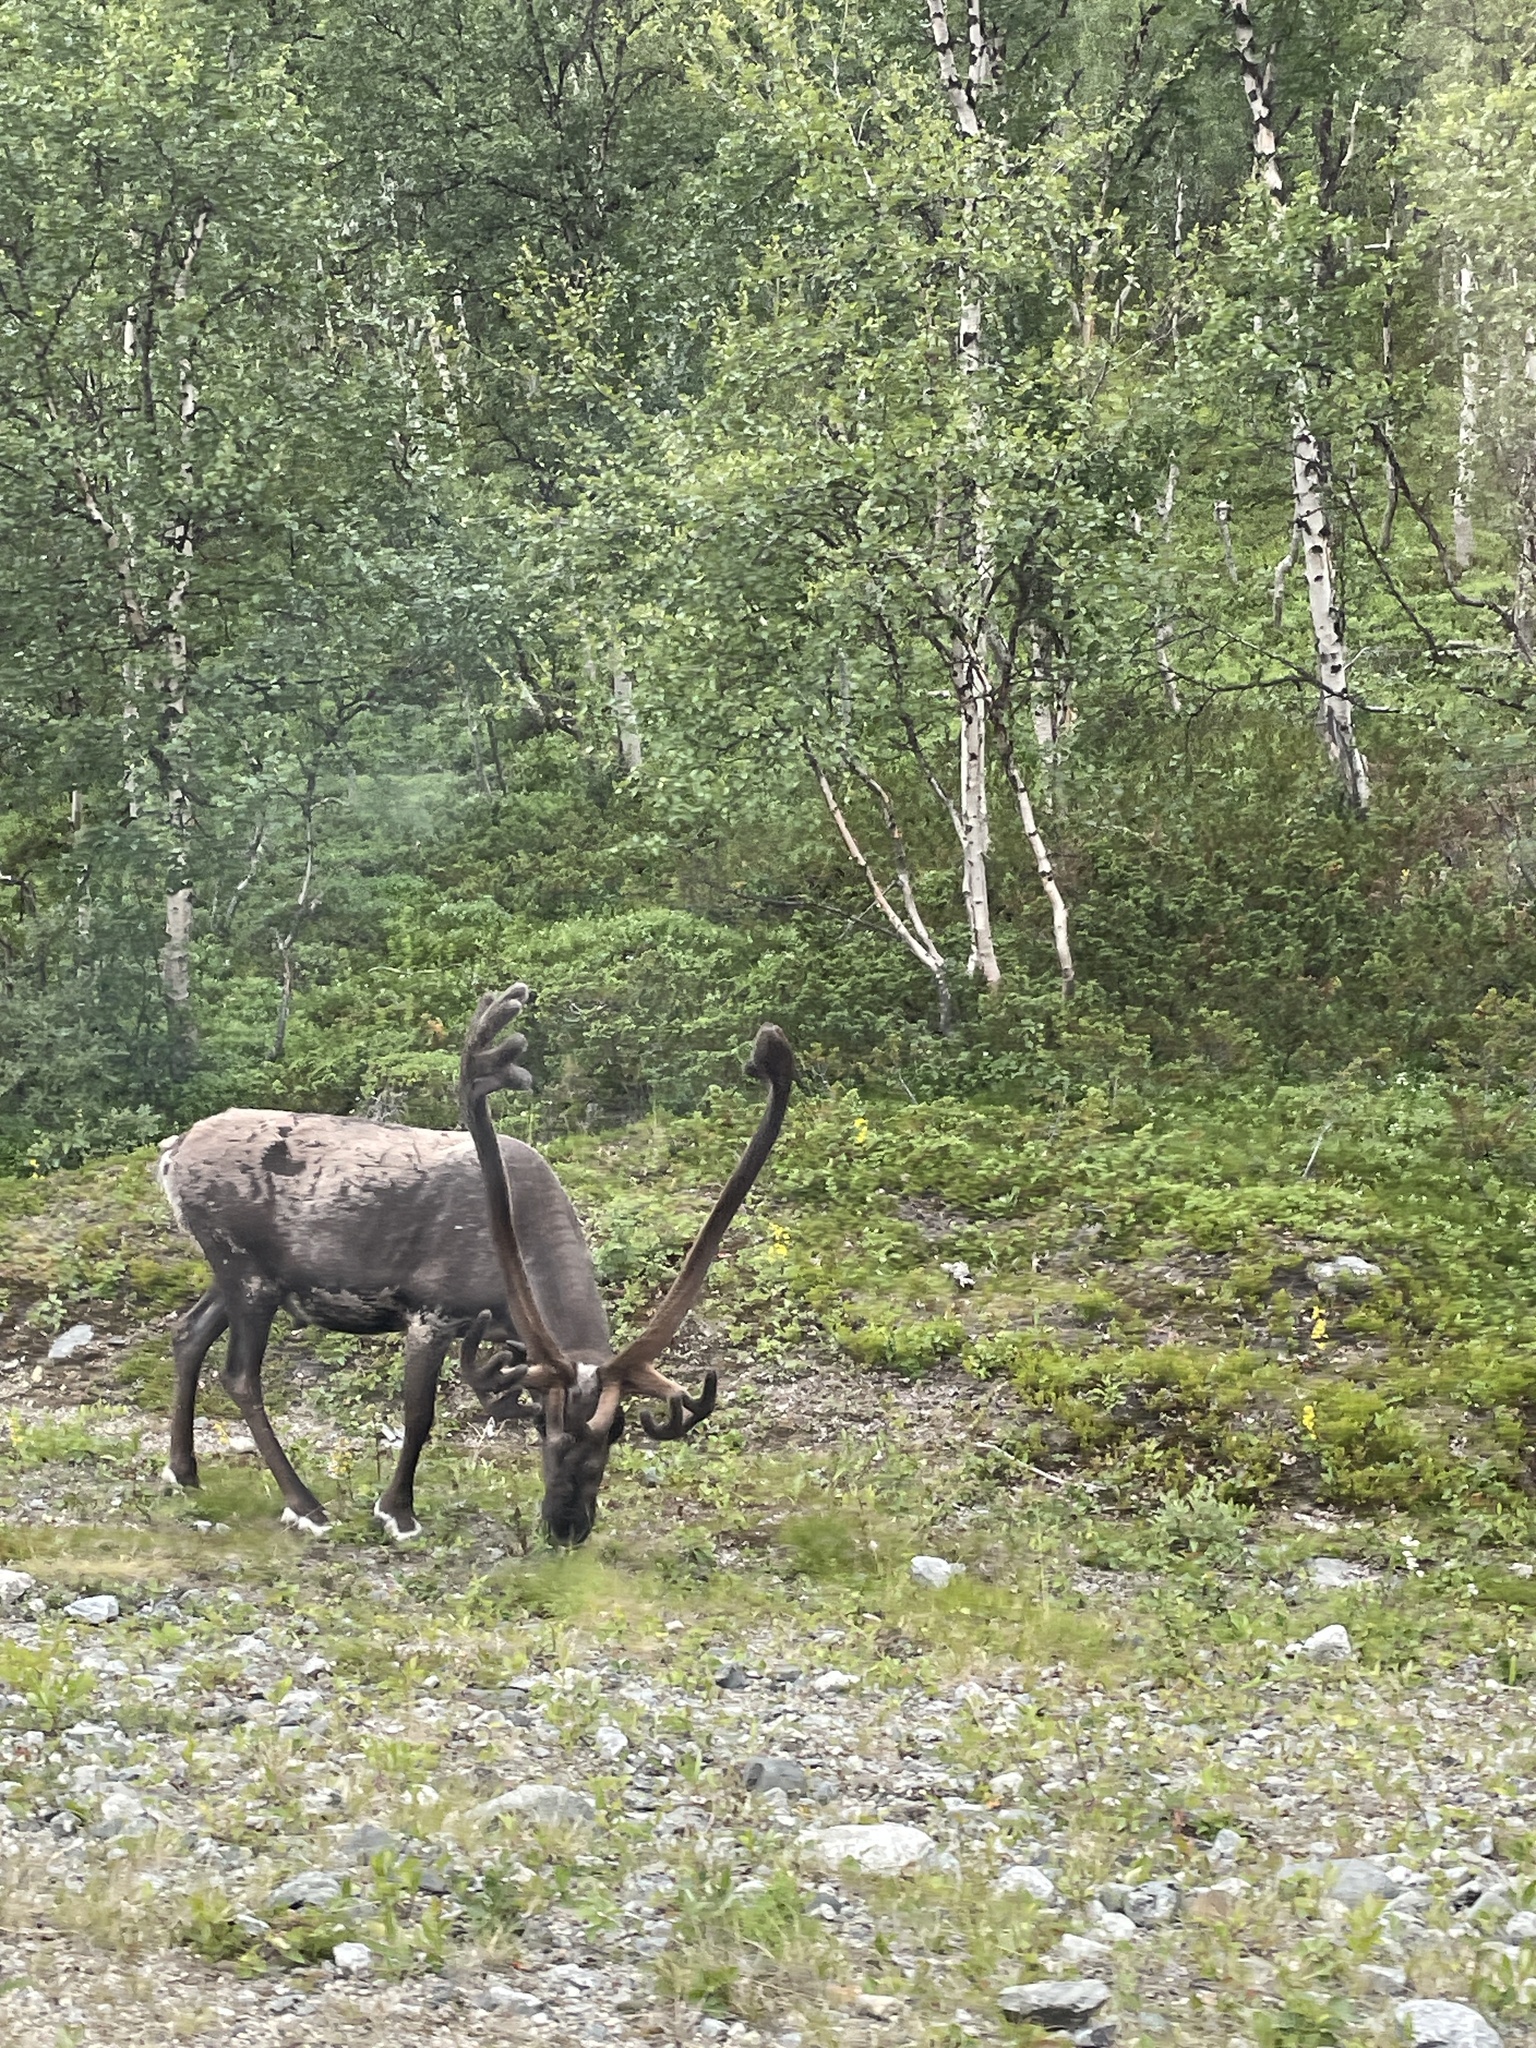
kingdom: Animalia
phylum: Chordata
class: Mammalia
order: Artiodactyla
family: Cervidae
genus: Rangifer
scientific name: Rangifer tarandus
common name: Reindeer
